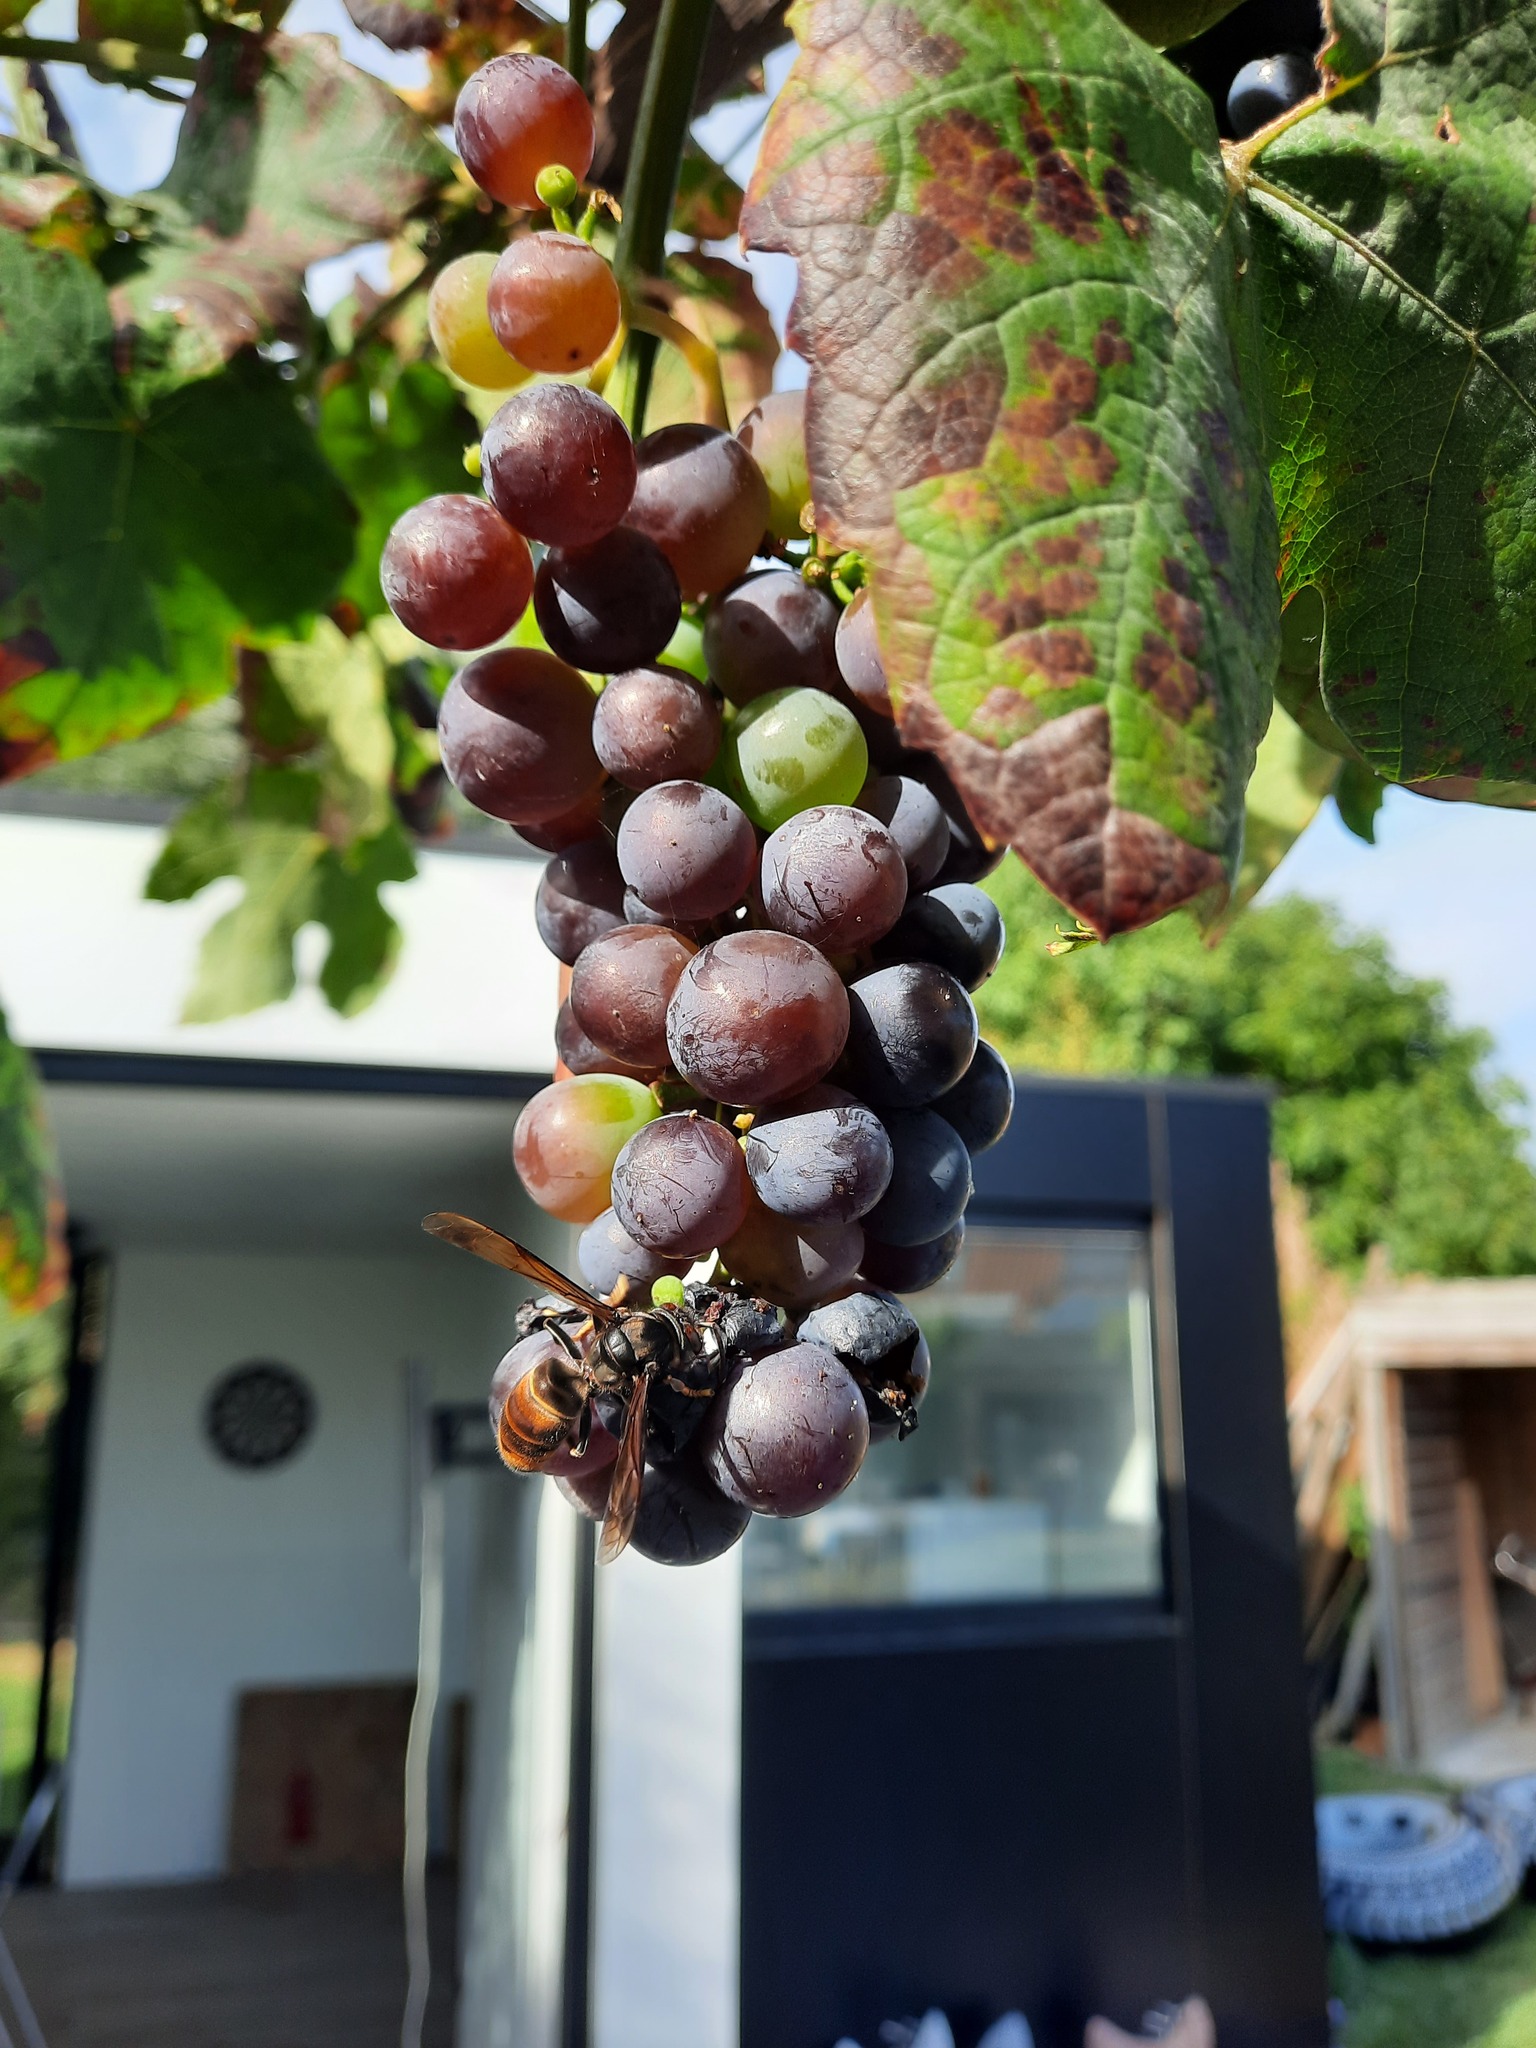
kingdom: Animalia
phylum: Arthropoda
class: Insecta
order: Hymenoptera
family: Vespidae
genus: Vespa
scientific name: Vespa velutina
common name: Asian hornet
